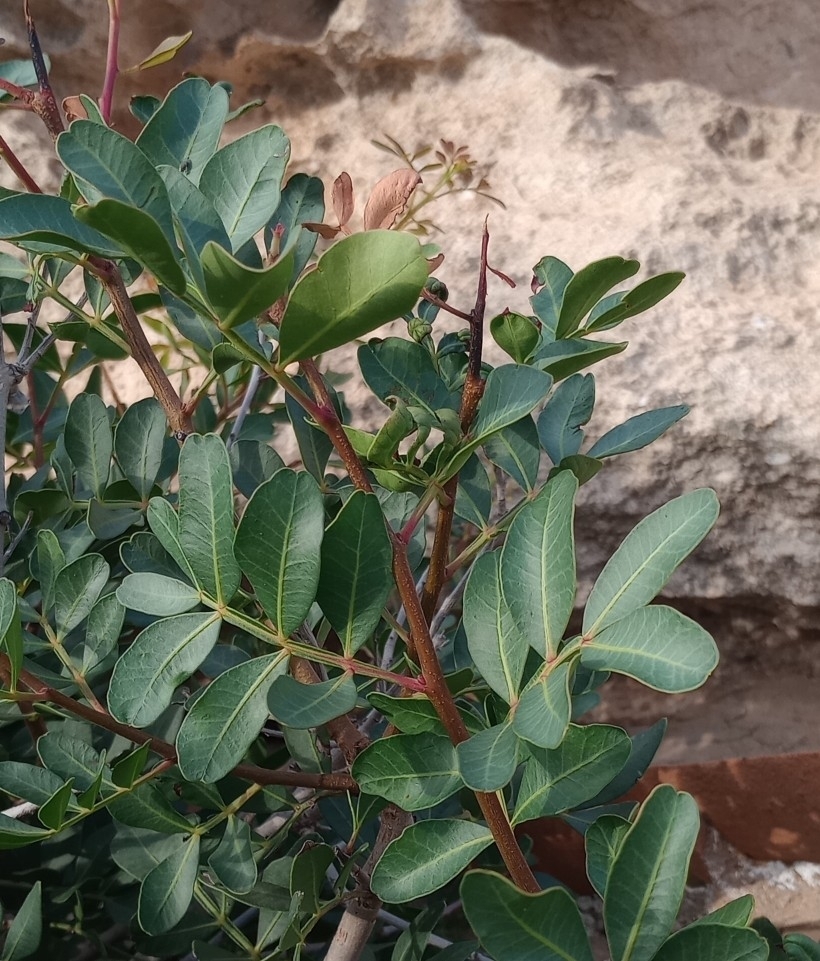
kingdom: Plantae
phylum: Tracheophyta
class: Magnoliopsida
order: Sapindales
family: Anacardiaceae
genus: Pistacia
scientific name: Pistacia lentiscus
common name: Lentisk
